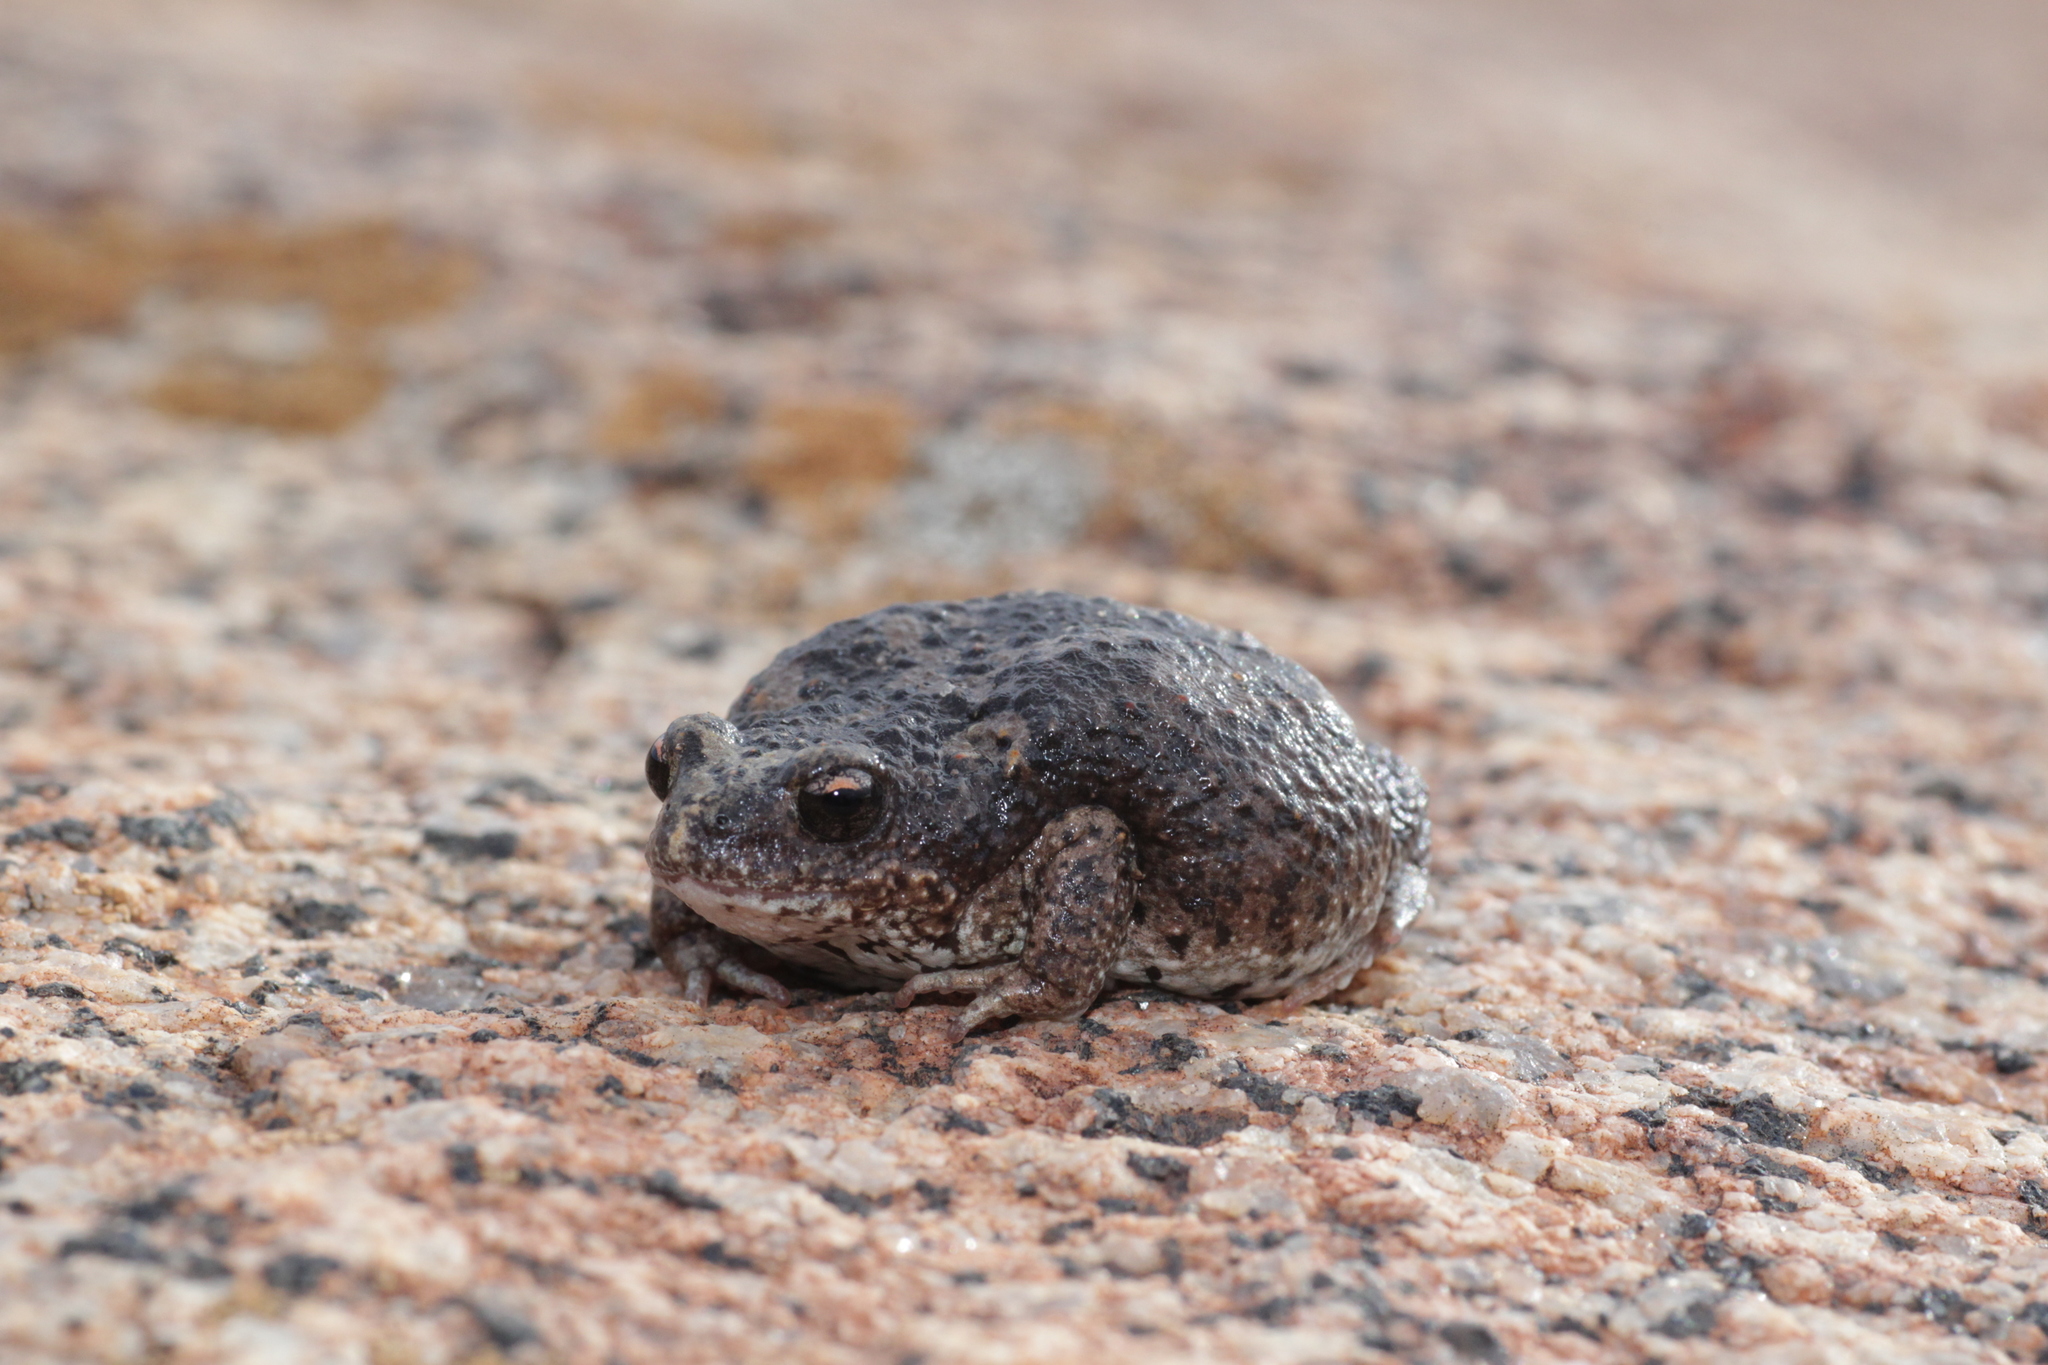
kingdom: Animalia
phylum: Chordata
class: Amphibia
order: Anura
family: Myobatrachidae
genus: Pseudophryne
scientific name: Pseudophryne occidentalis
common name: Orange-crowned toadlet
